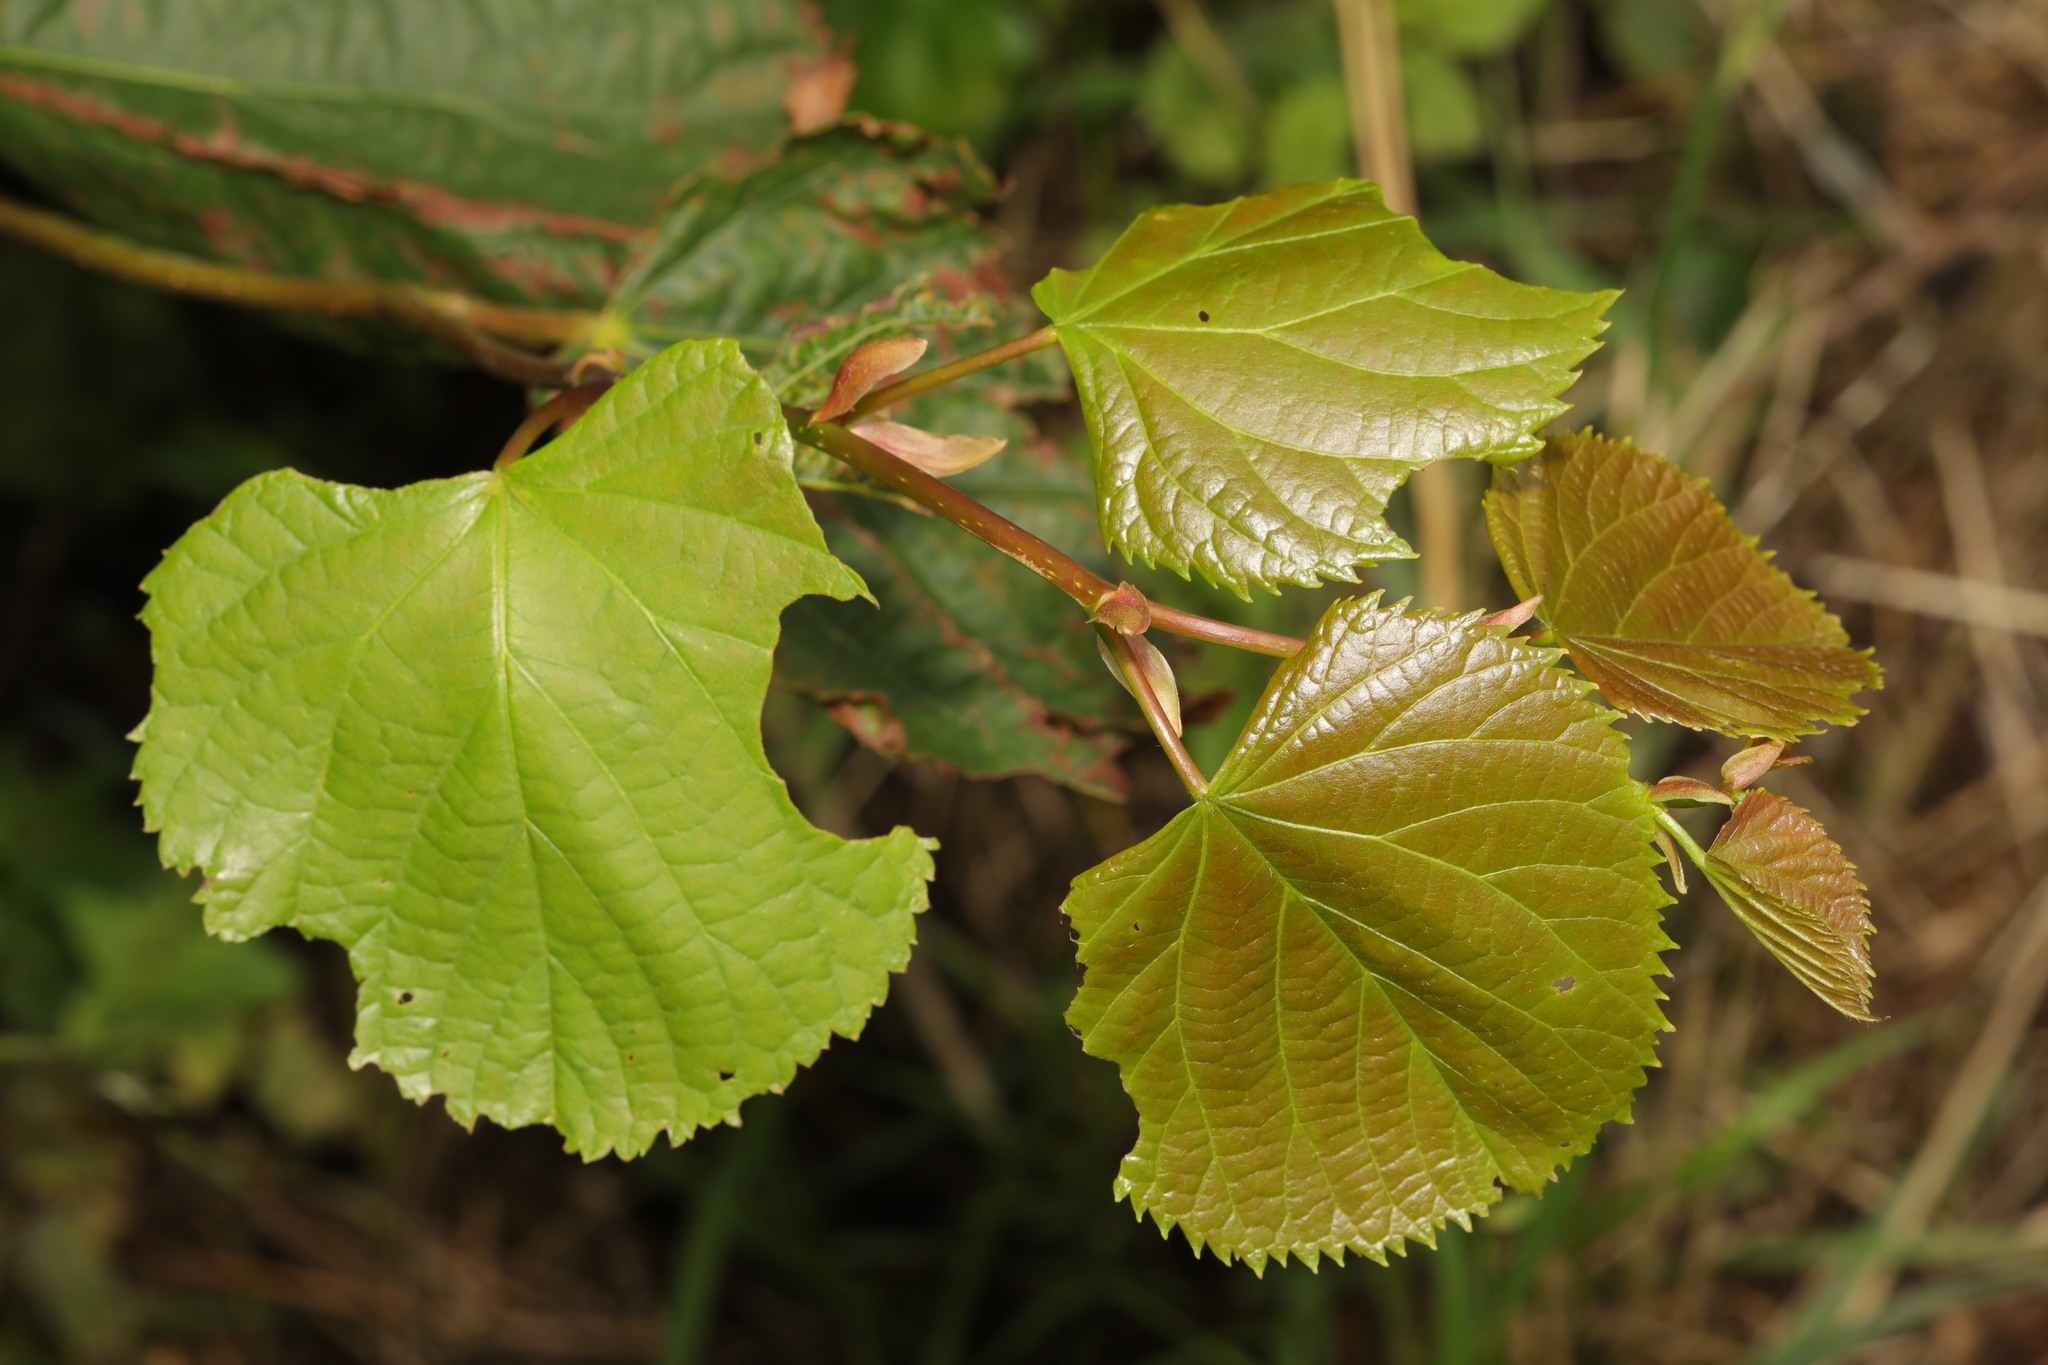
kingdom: Plantae
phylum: Tracheophyta
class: Magnoliopsida
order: Malvales
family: Malvaceae
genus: Tilia
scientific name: Tilia europaea
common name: European linden
